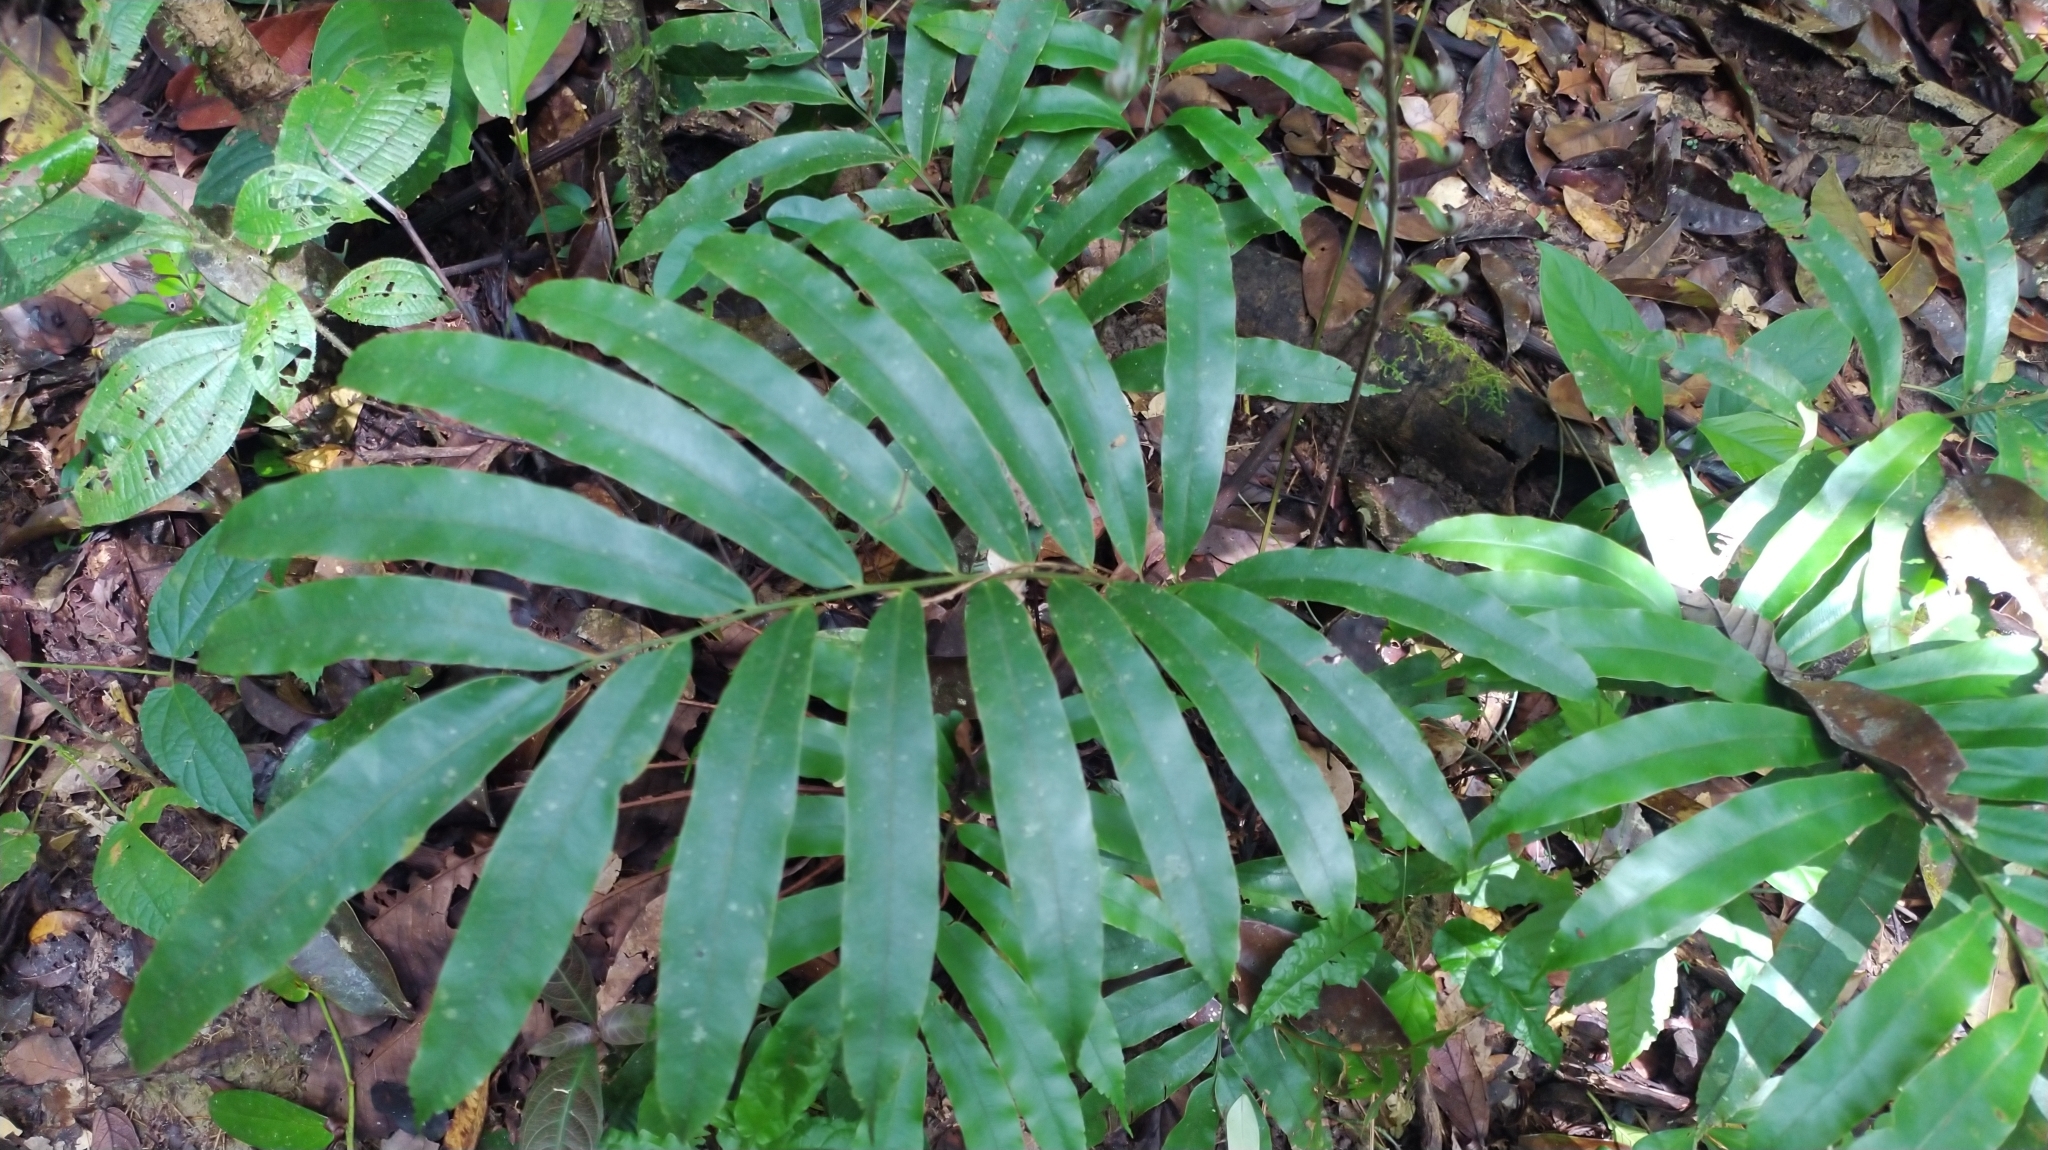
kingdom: Plantae
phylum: Tracheophyta
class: Polypodiopsida
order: Cyatheales
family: Metaxyaceae
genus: Metaxya
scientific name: Metaxya scalaris
